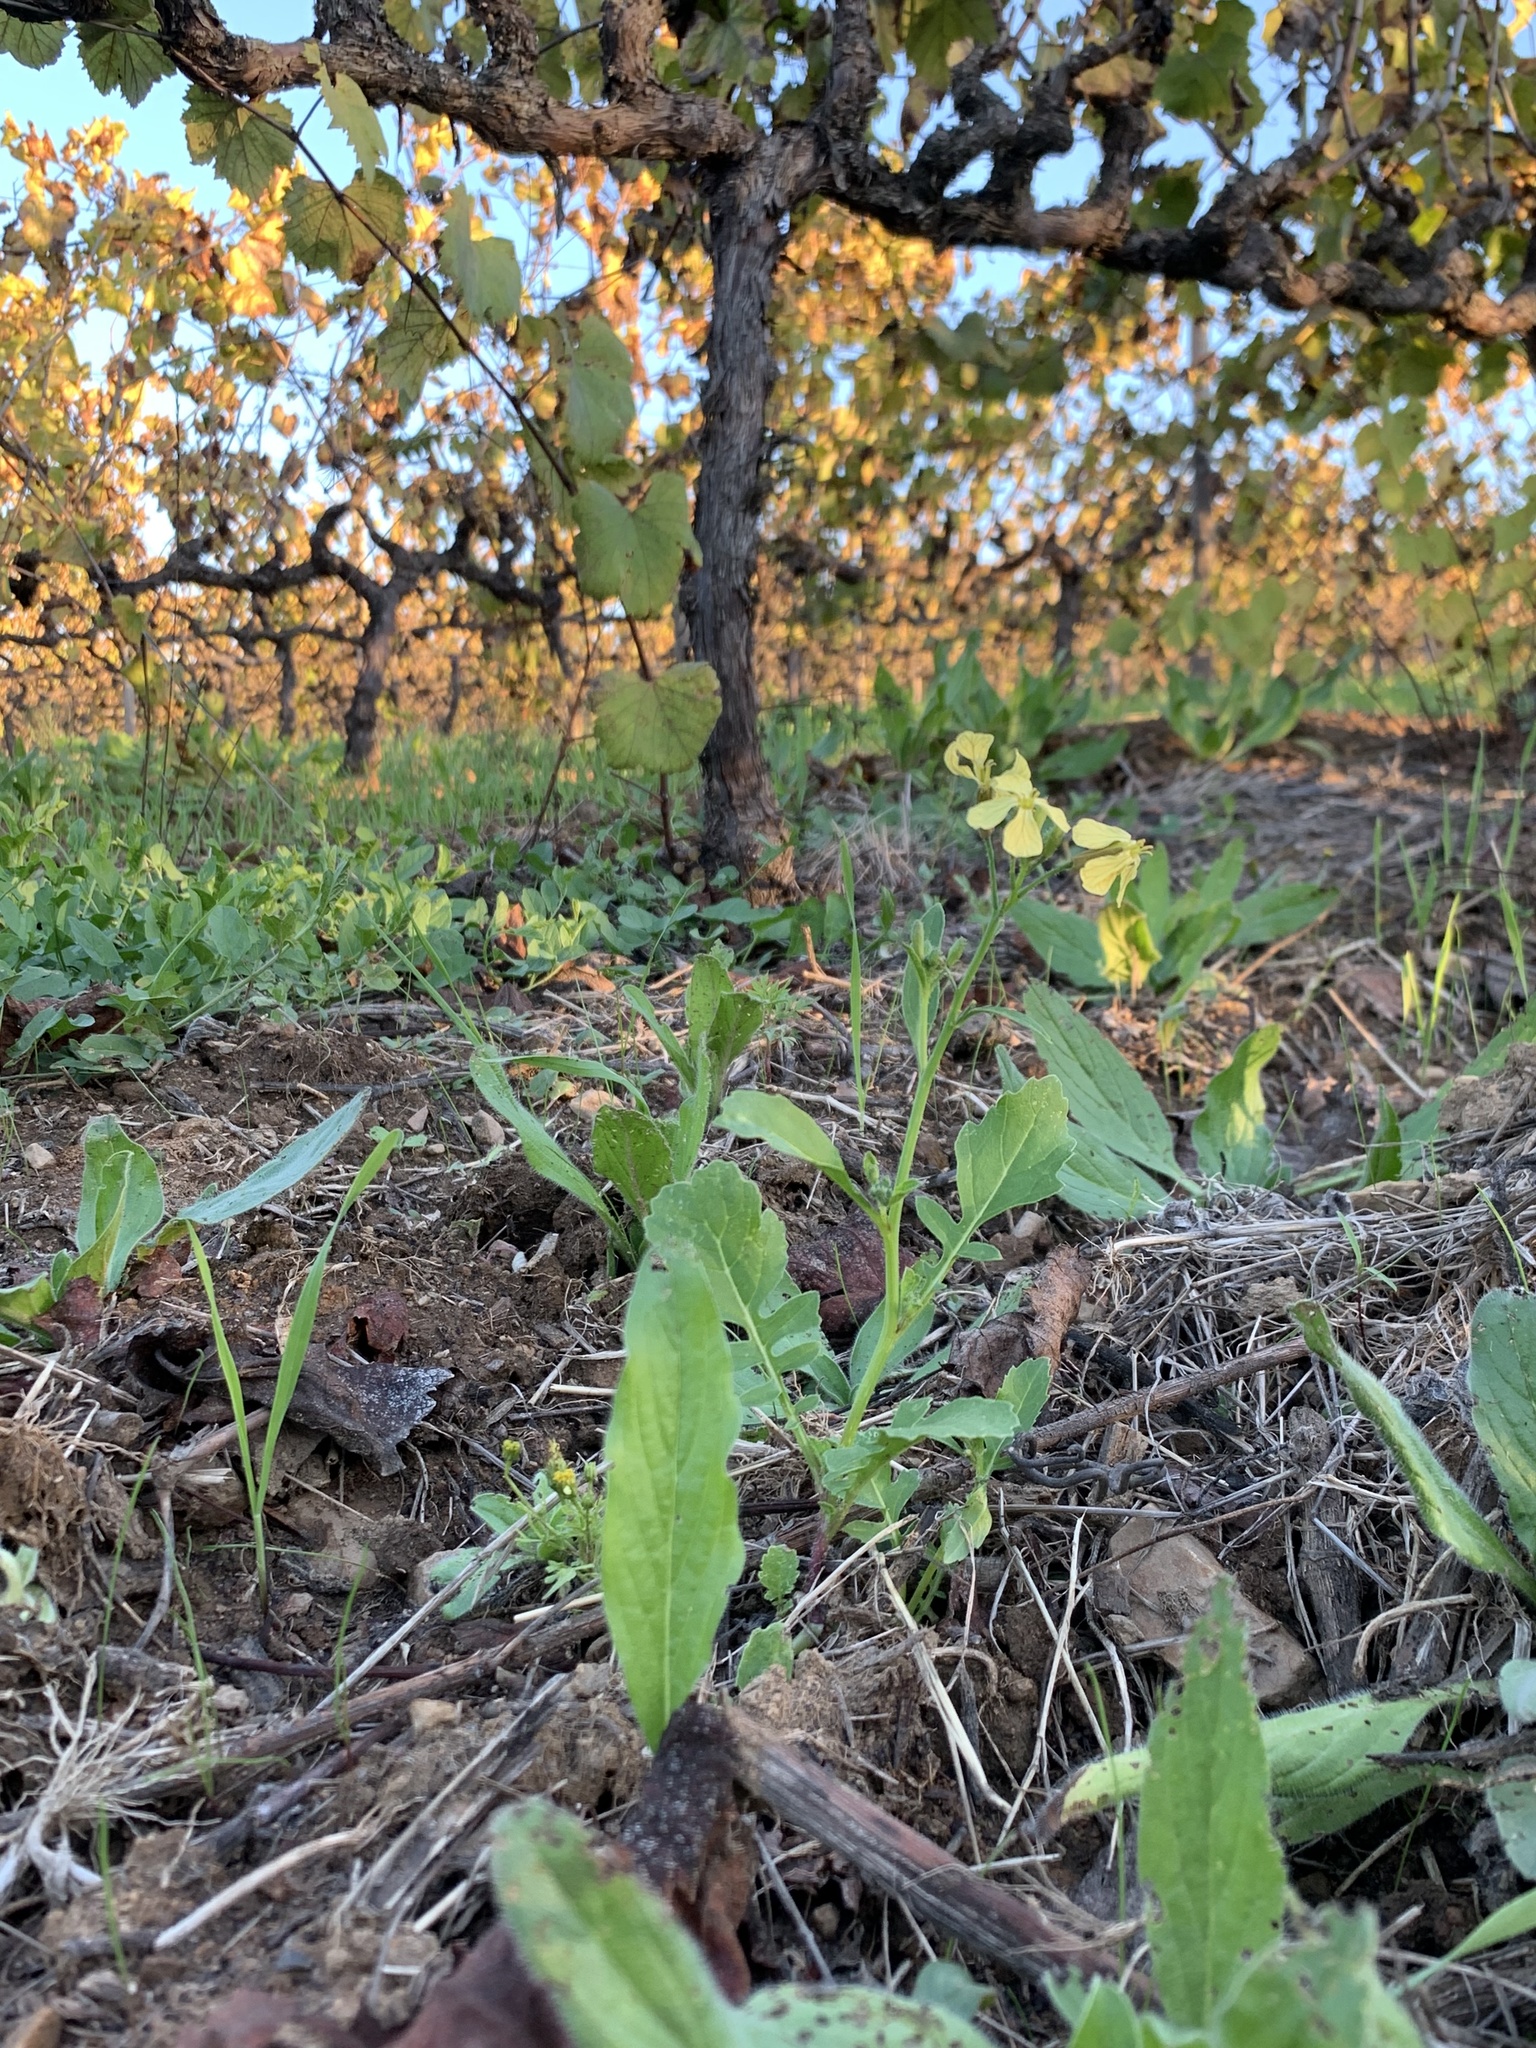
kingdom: Plantae
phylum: Tracheophyta
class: Magnoliopsida
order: Brassicales
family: Brassicaceae
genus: Raphanus
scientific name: Raphanus raphanistrum
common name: Wild radish
